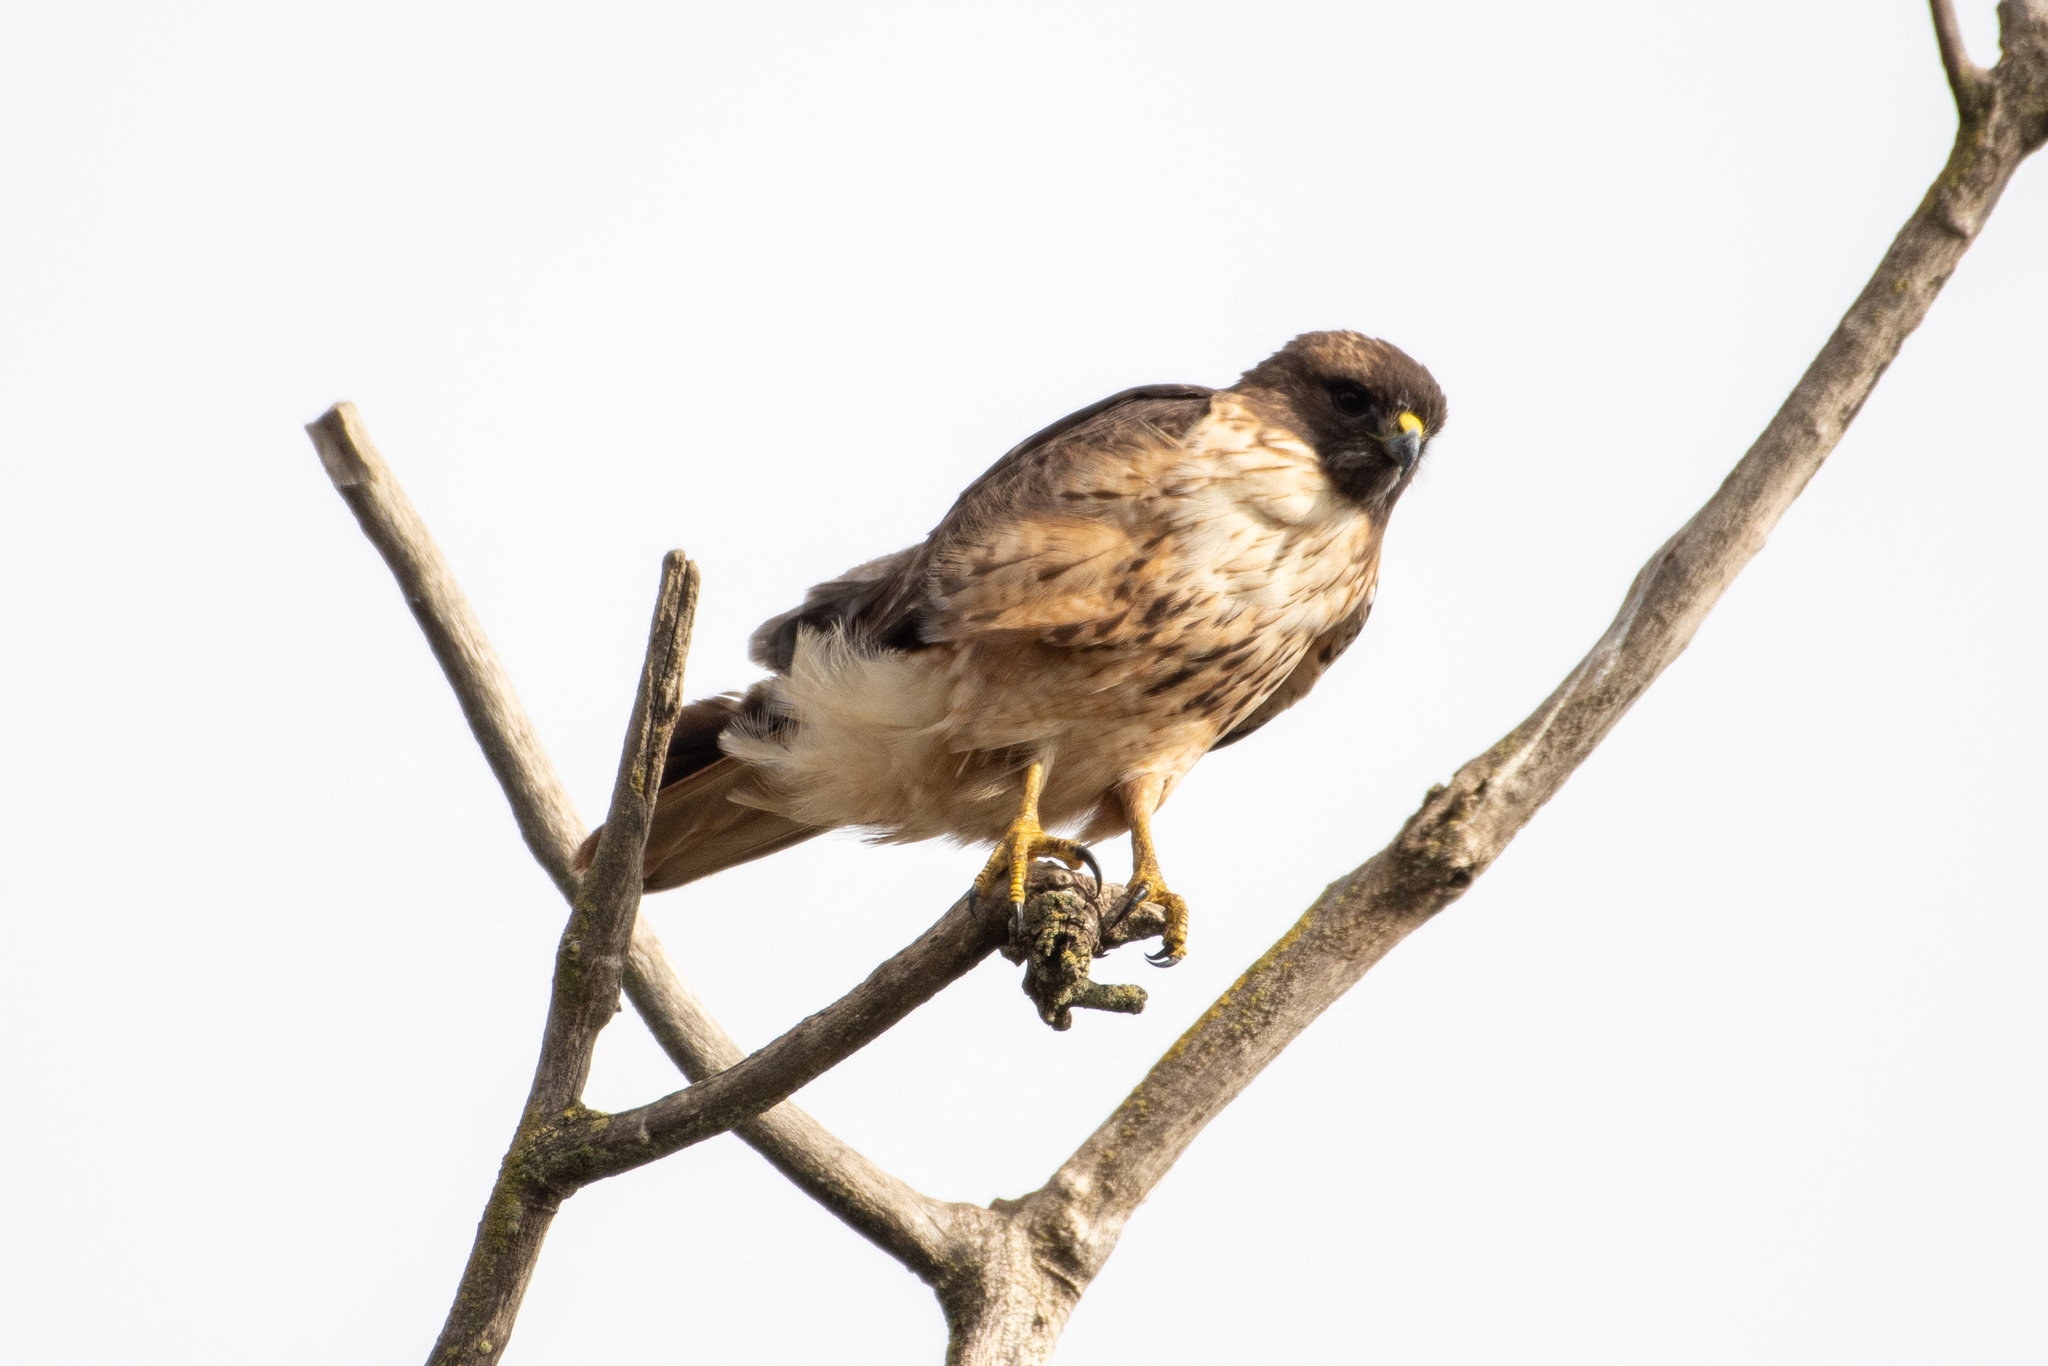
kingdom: Animalia
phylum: Chordata
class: Aves
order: Accipitriformes
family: Accipitridae
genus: Buteo
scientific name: Buteo jamaicensis
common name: Red-tailed hawk
